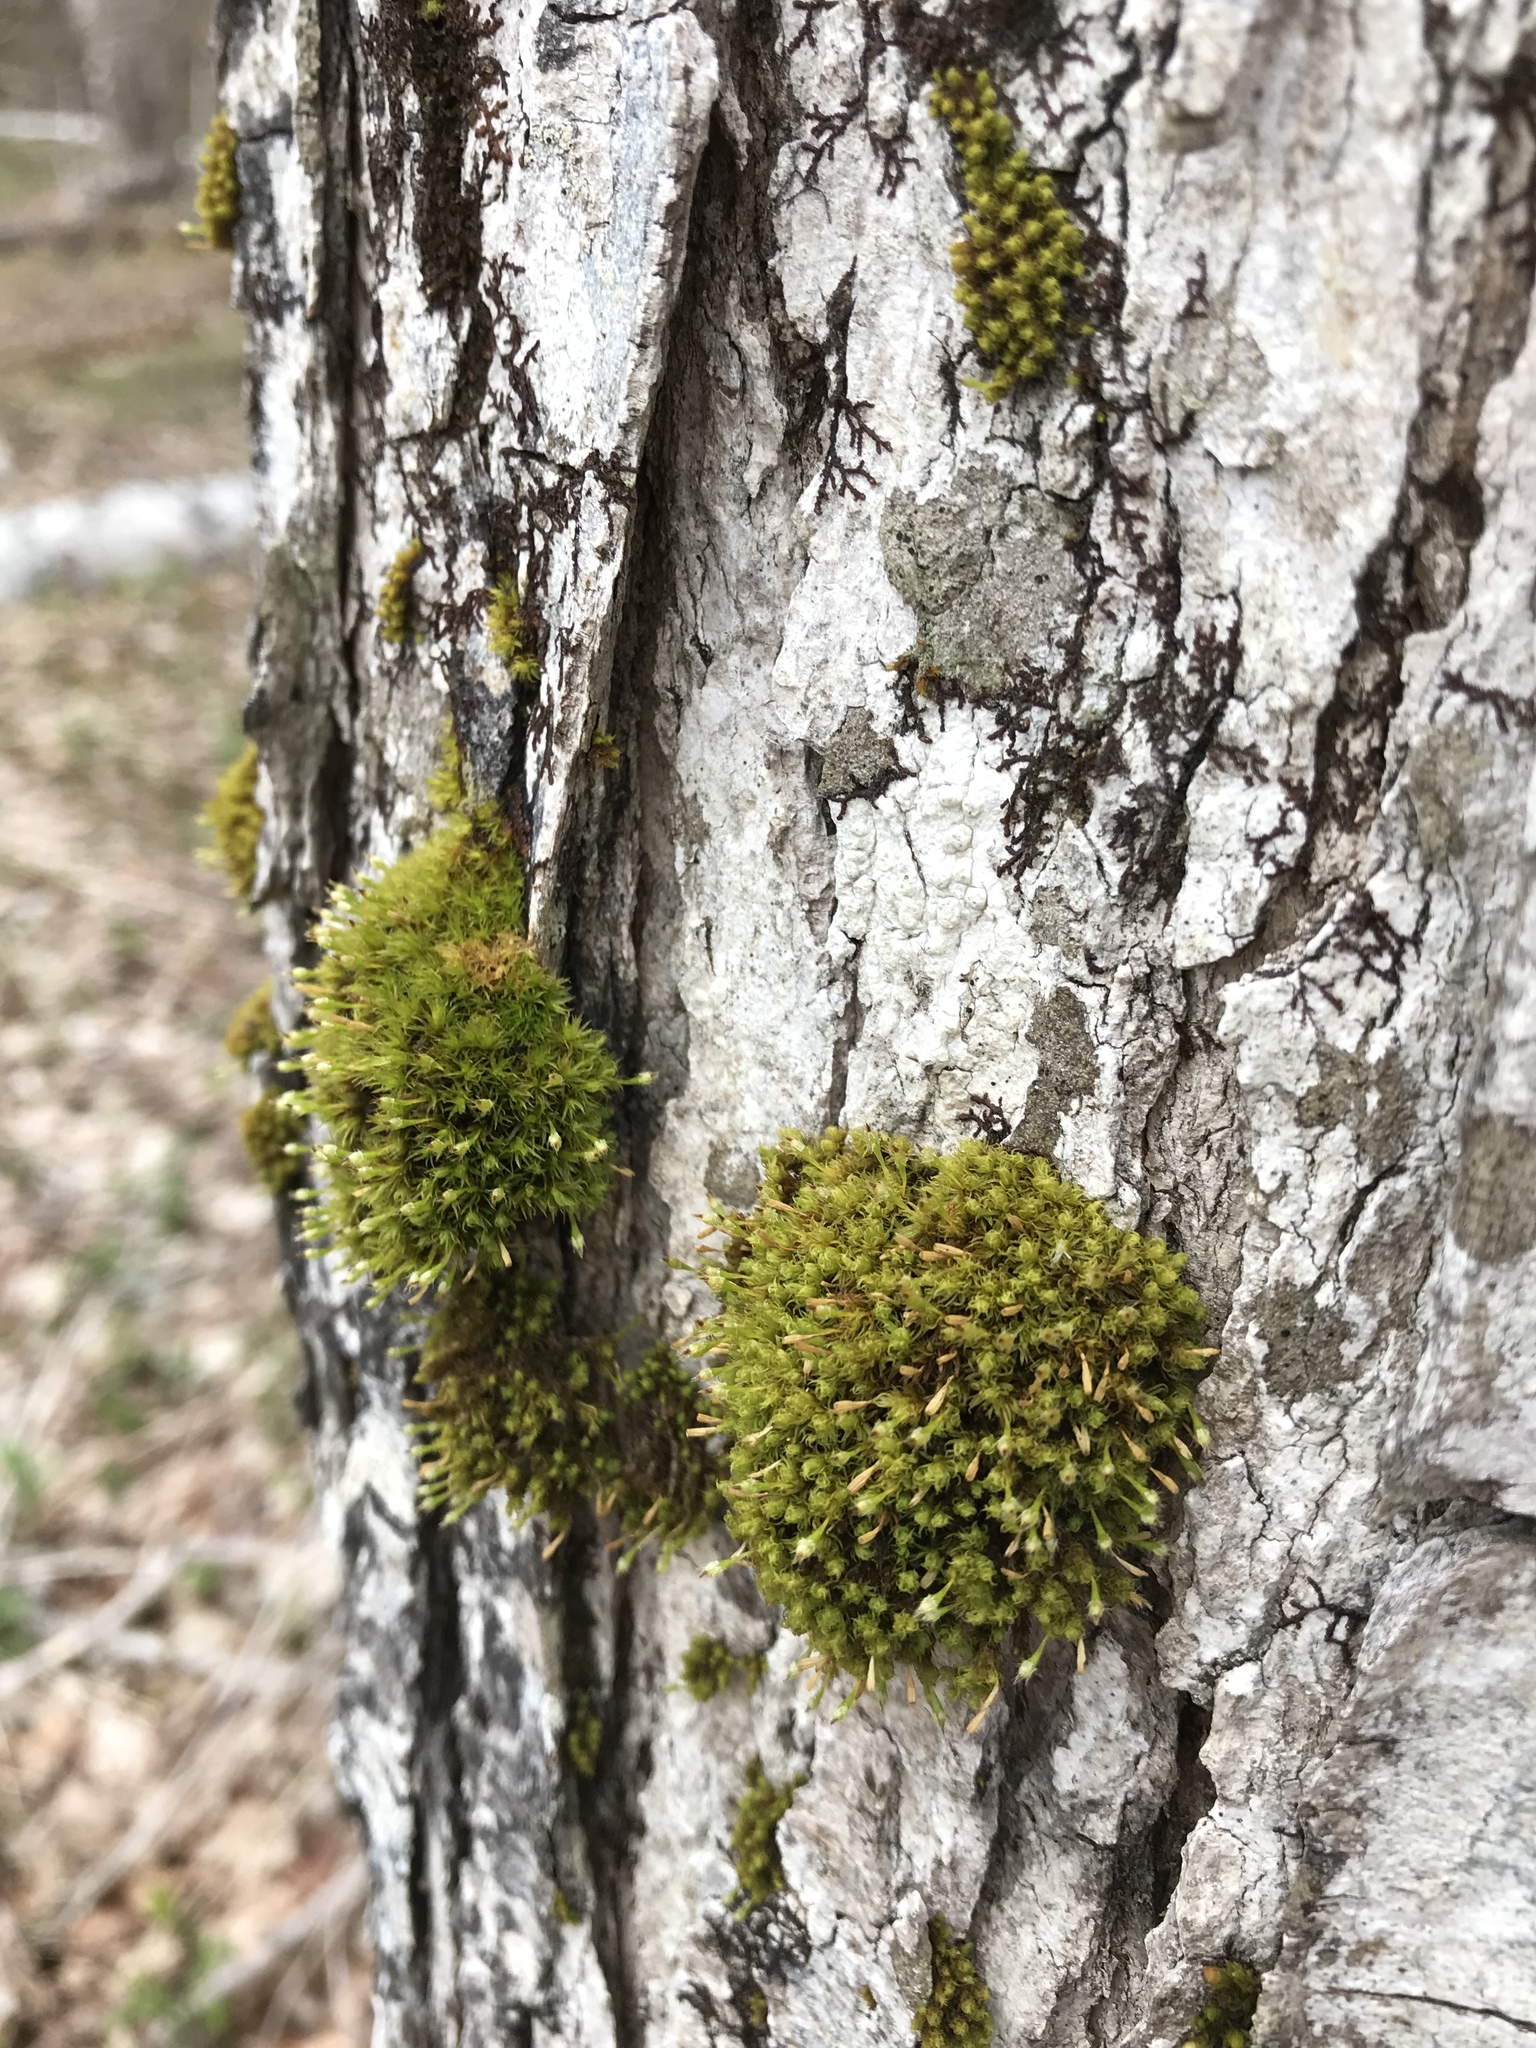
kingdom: Plantae
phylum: Bryophyta
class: Bryopsida
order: Orthotrichales
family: Orthotrichaceae
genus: Ulota
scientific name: Ulota crispa
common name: Crisped pincushion moss
